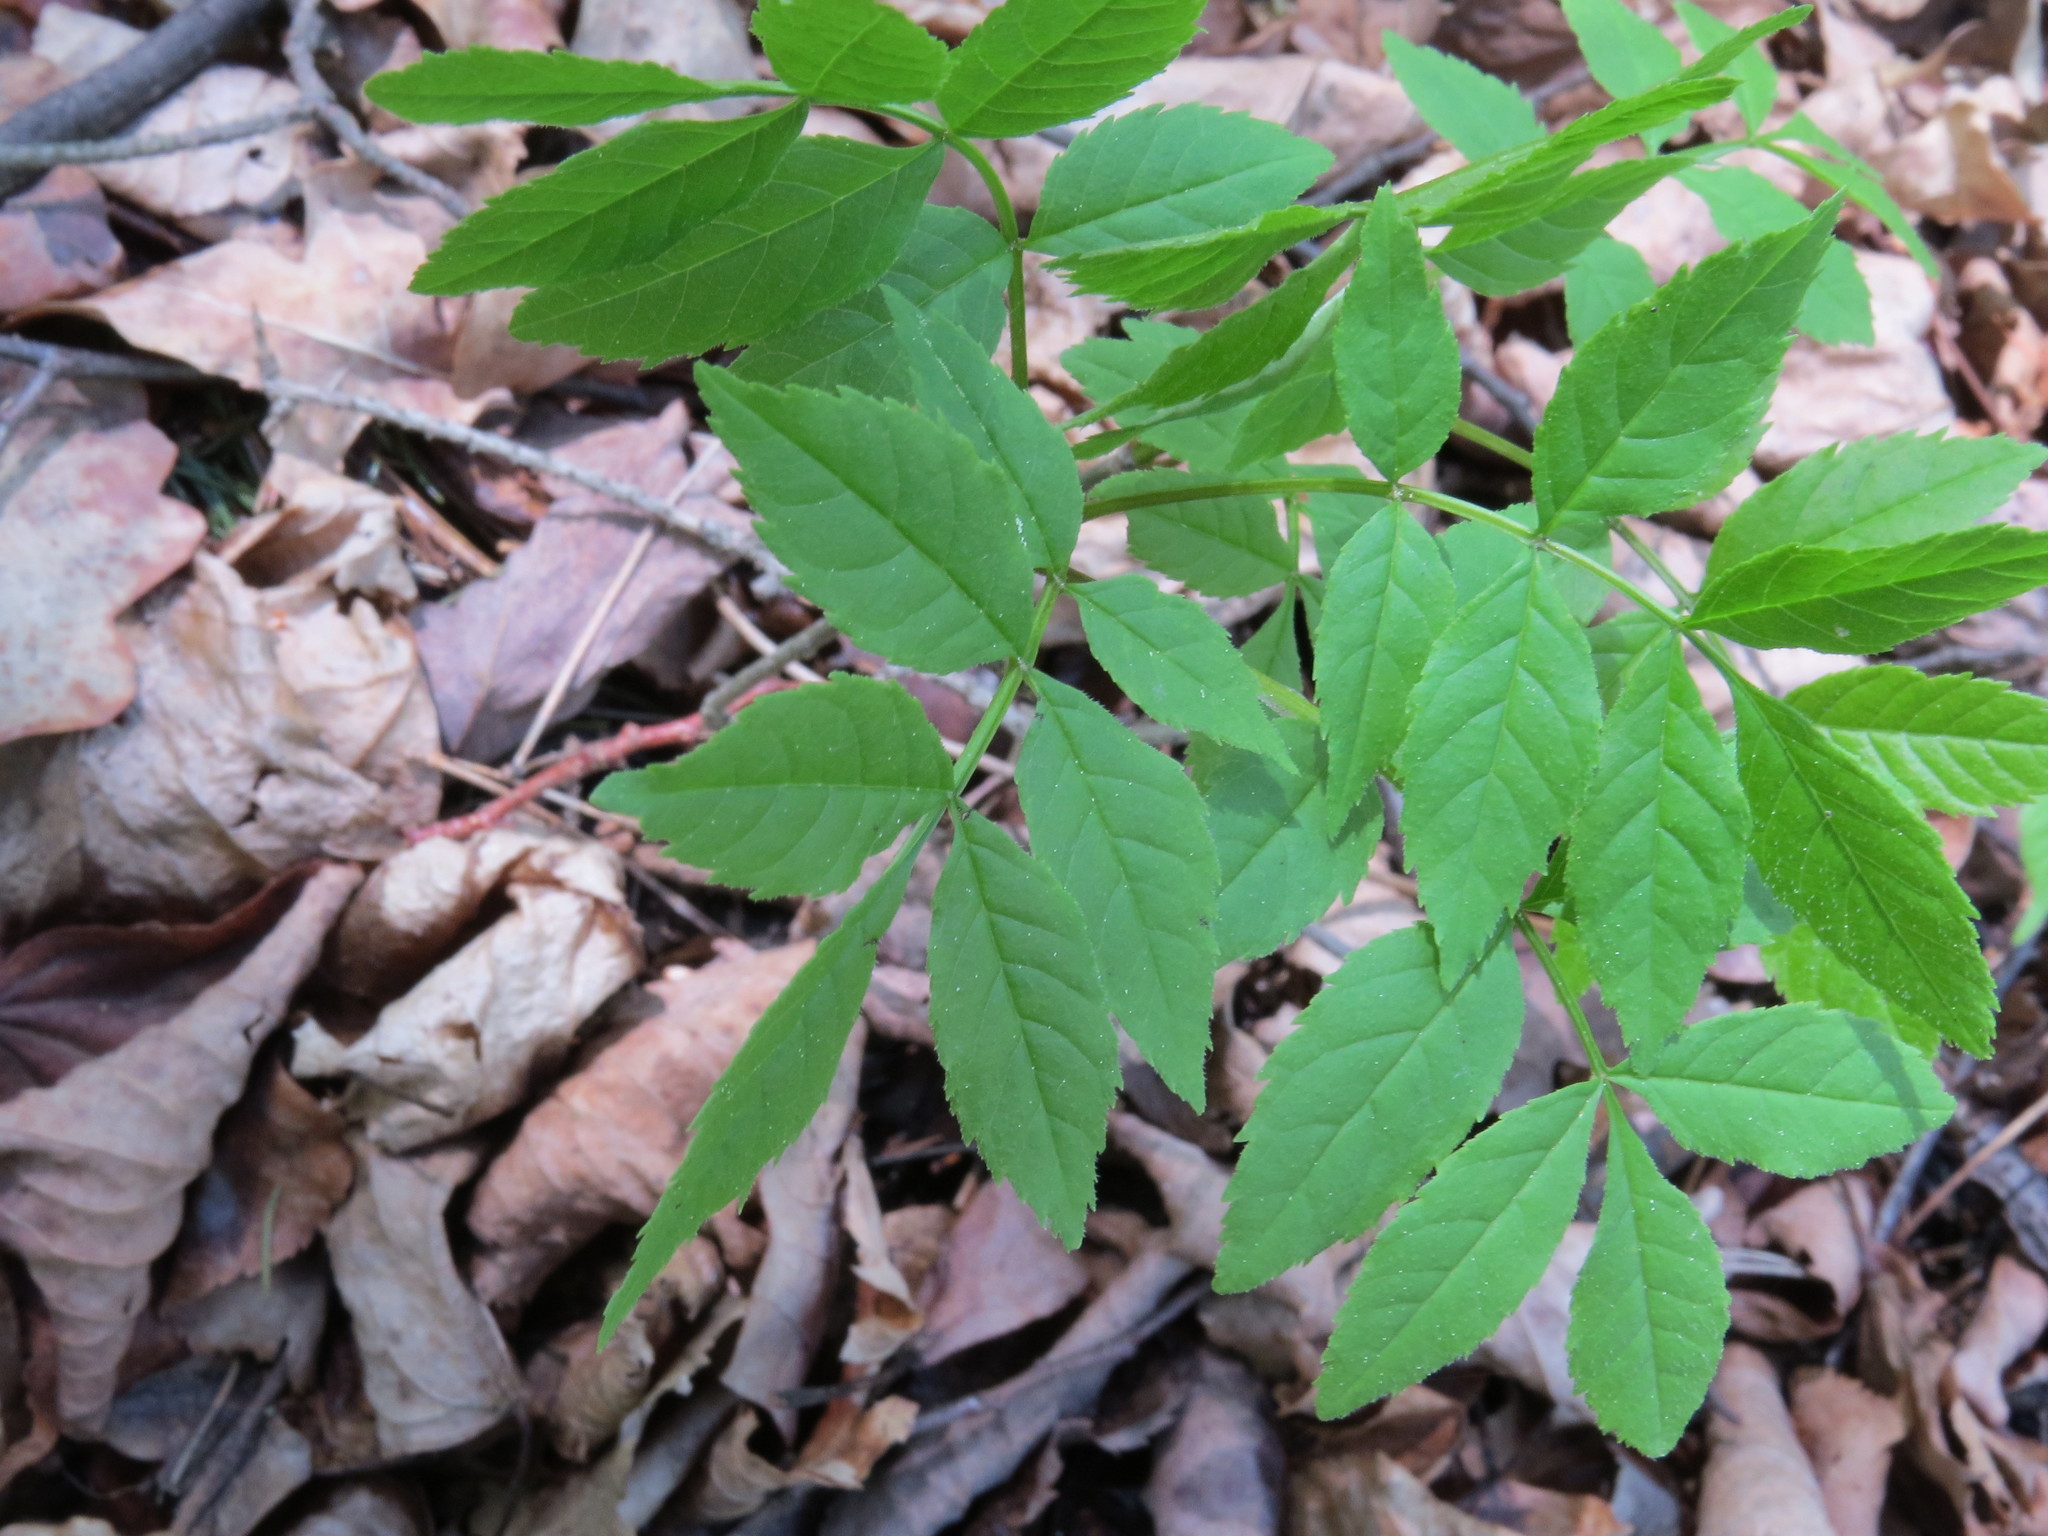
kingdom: Plantae
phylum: Tracheophyta
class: Magnoliopsida
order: Lamiales
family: Oleaceae
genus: Fraxinus
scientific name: Fraxinus excelsior
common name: European ash
